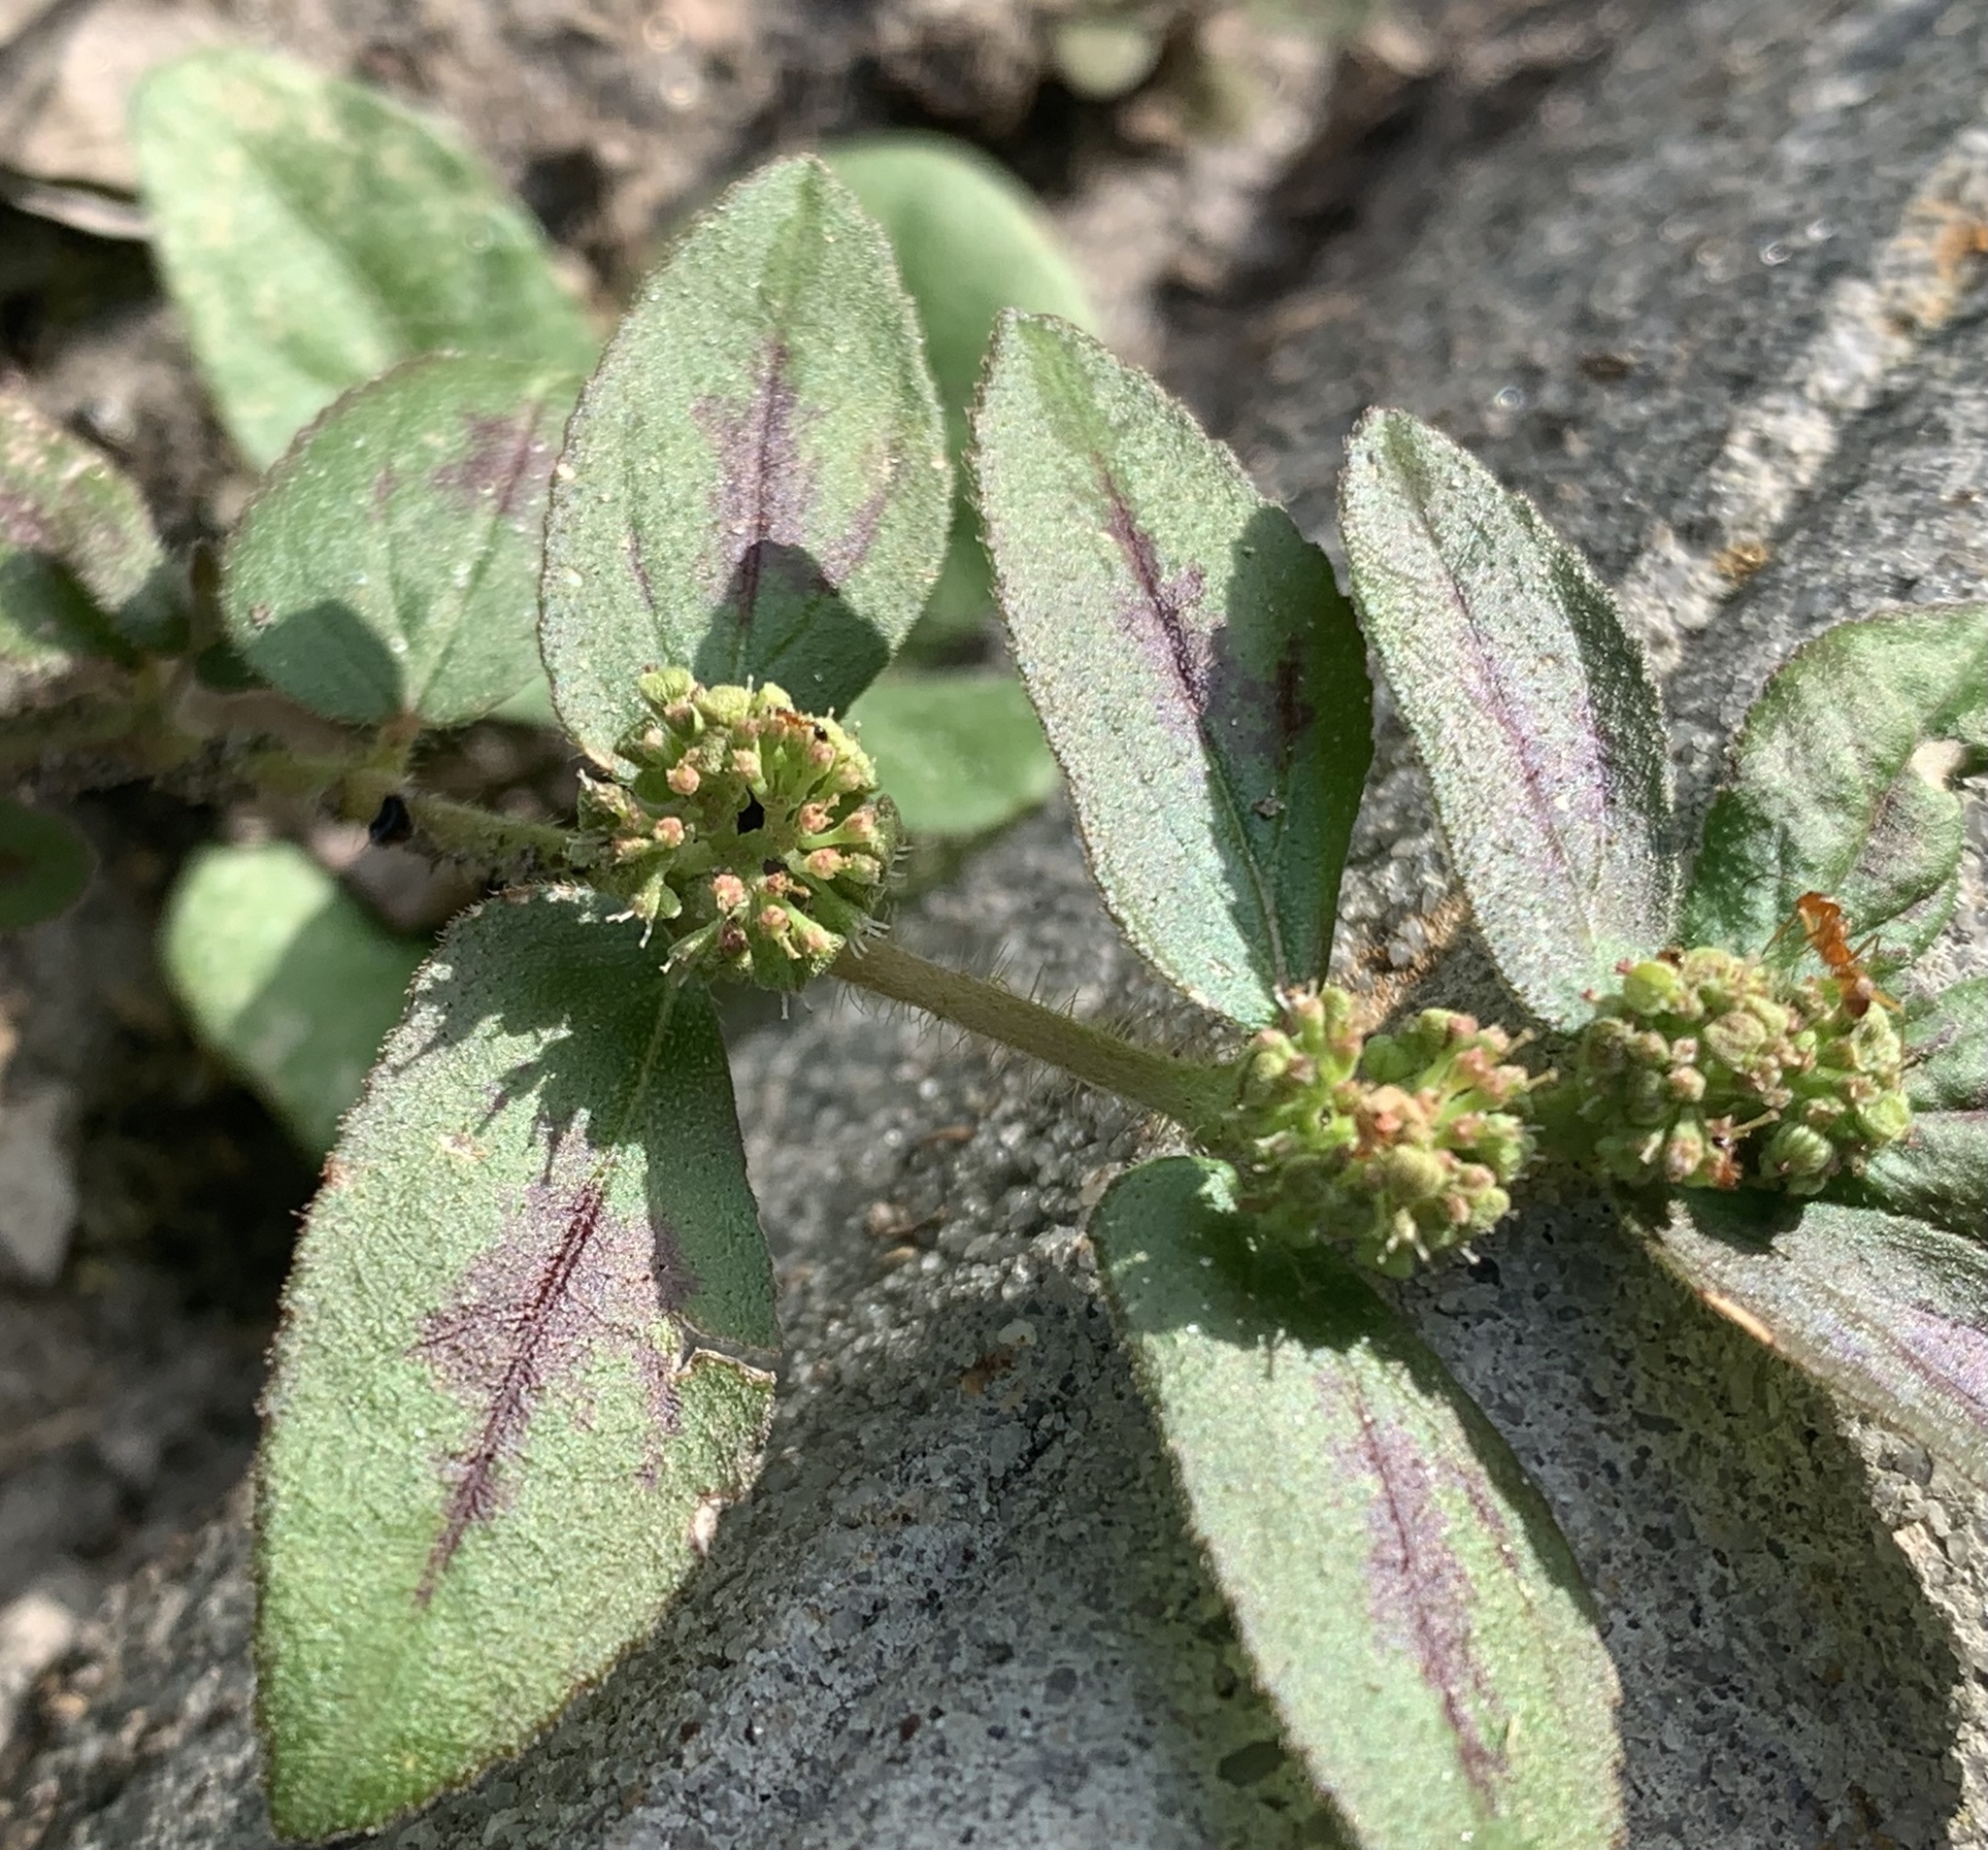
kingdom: Plantae
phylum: Tracheophyta
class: Magnoliopsida
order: Malpighiales
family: Euphorbiaceae
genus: Euphorbia
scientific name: Euphorbia hirta
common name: Pillpod sandmat
